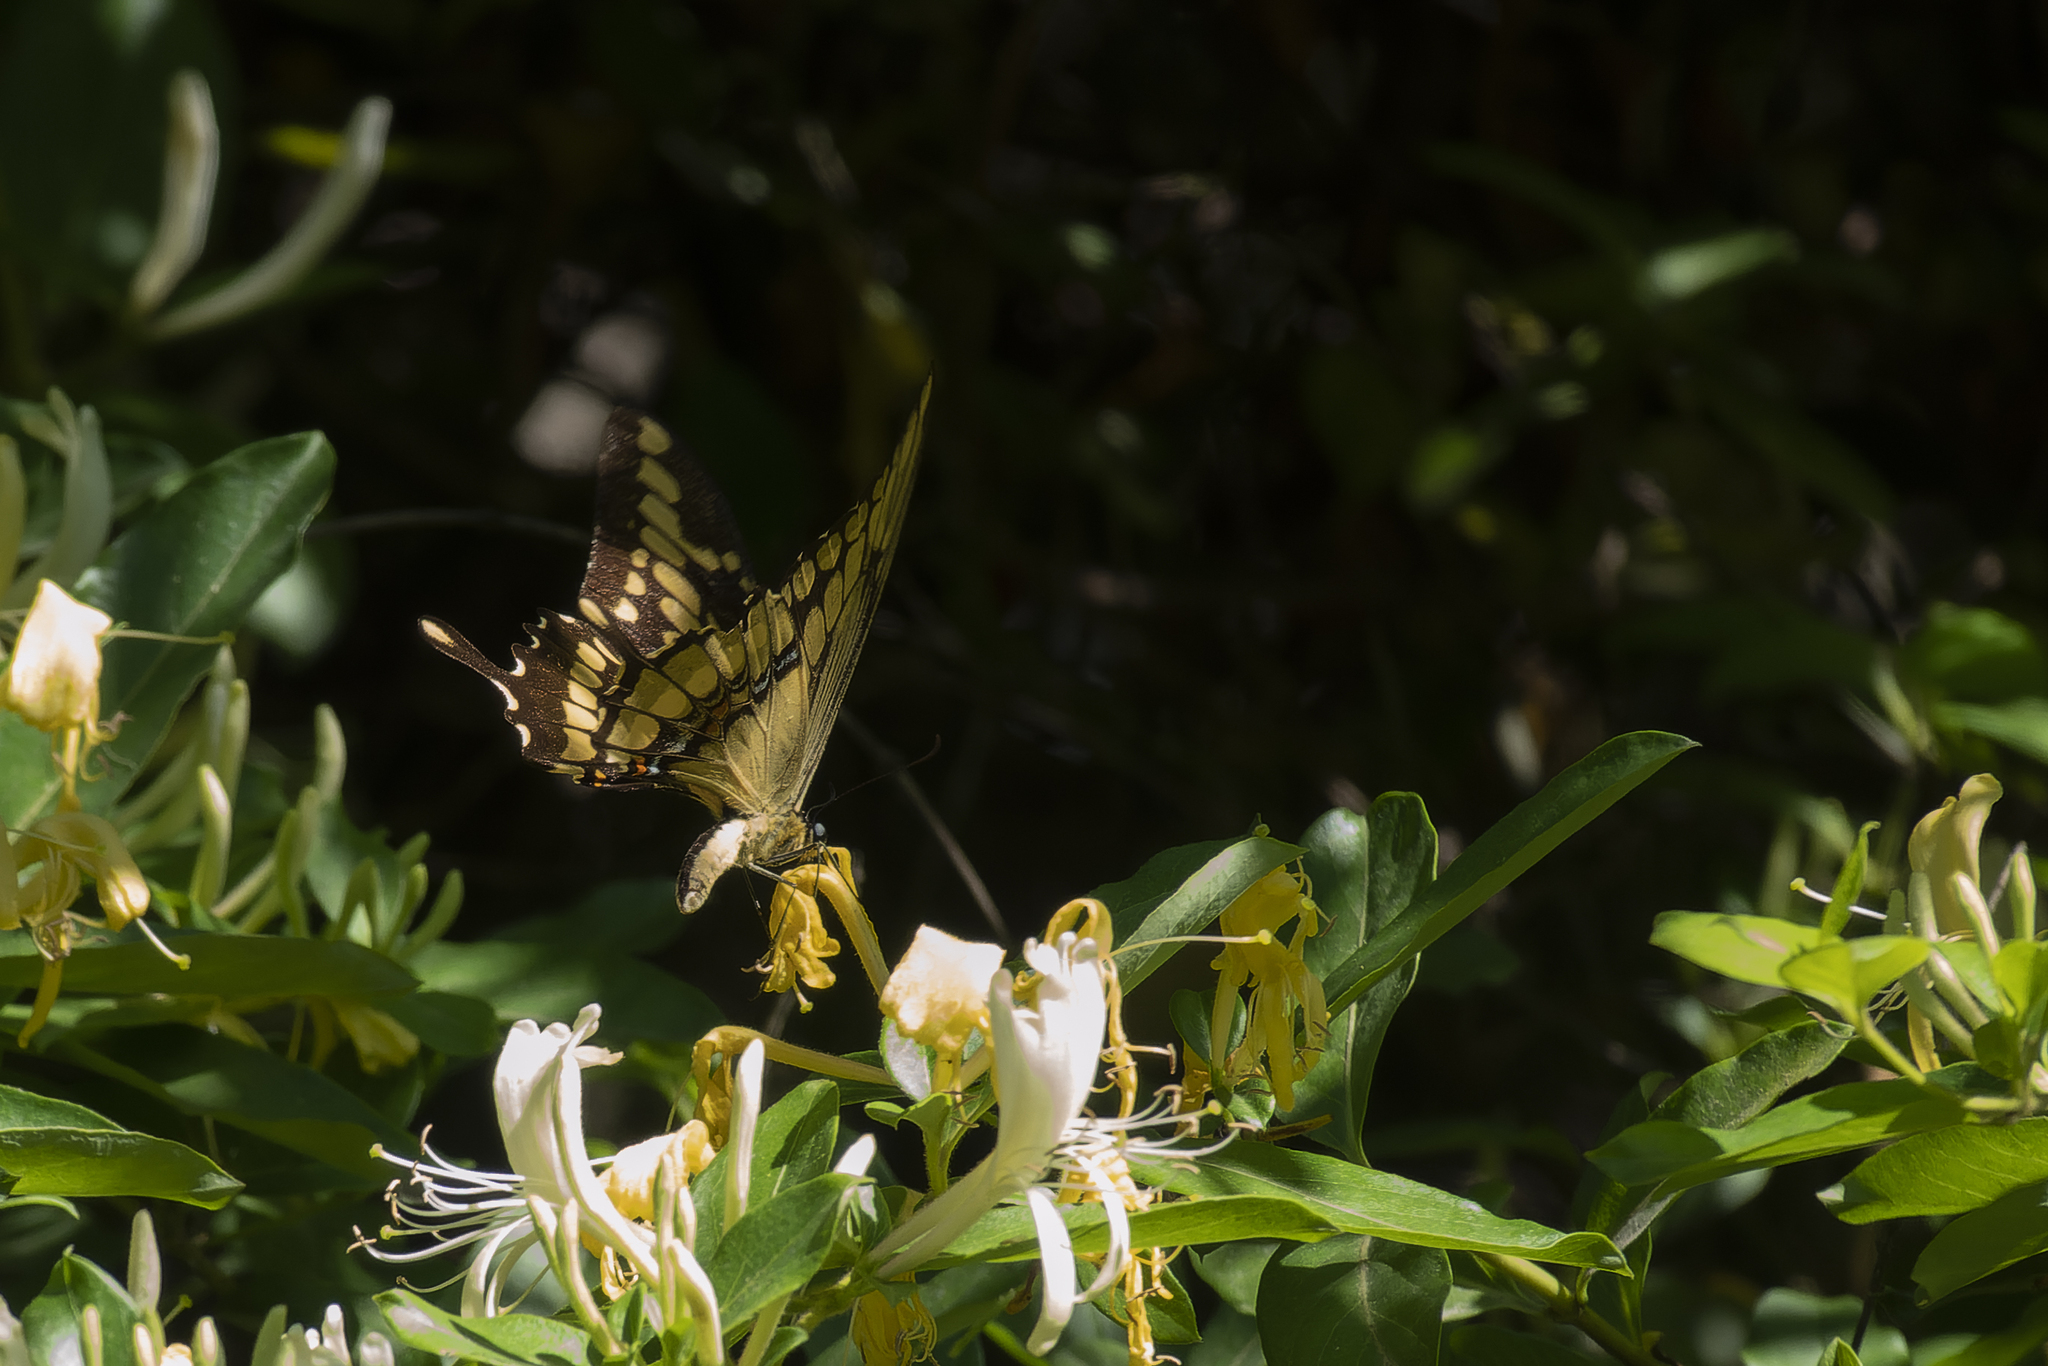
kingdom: Animalia
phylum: Arthropoda
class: Insecta
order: Lepidoptera
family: Papilionidae
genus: Papilio
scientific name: Papilio thoas
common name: King swallowtail
